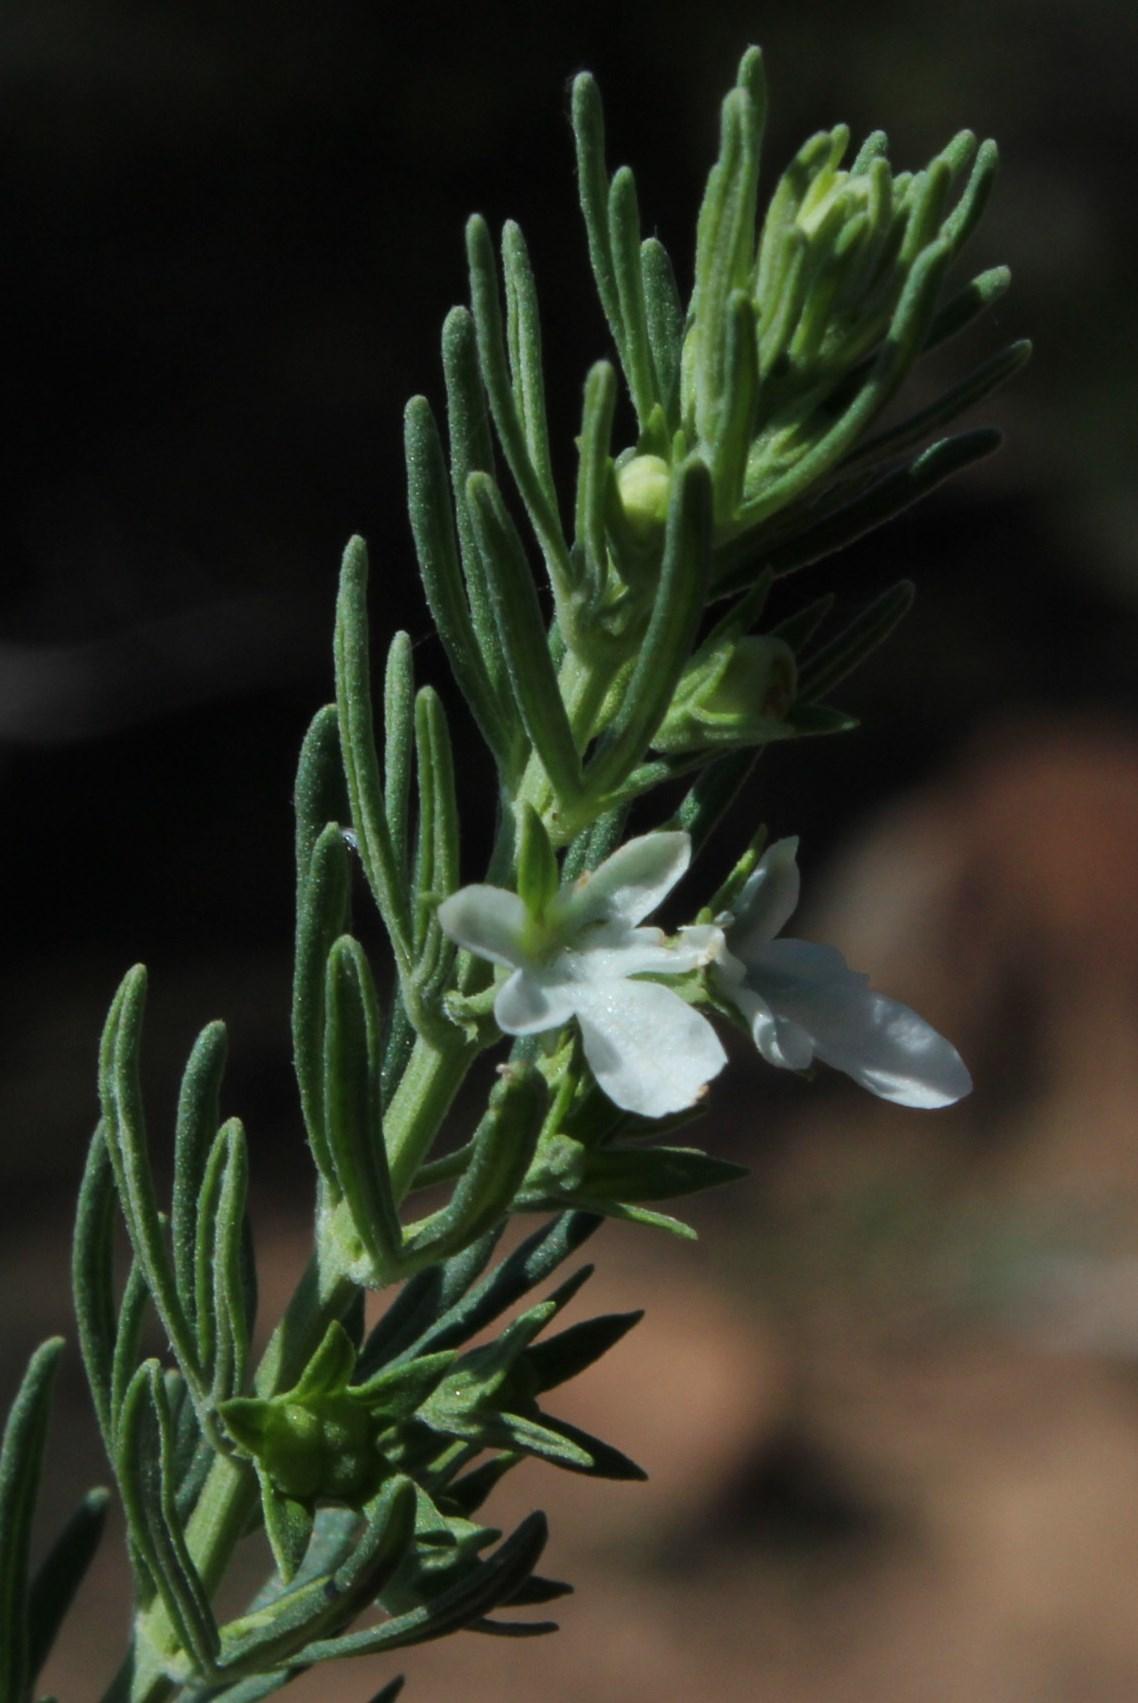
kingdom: Plantae
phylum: Tracheophyta
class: Magnoliopsida
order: Lamiales
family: Lamiaceae
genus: Teucrium
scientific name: Teucrium trifidum
